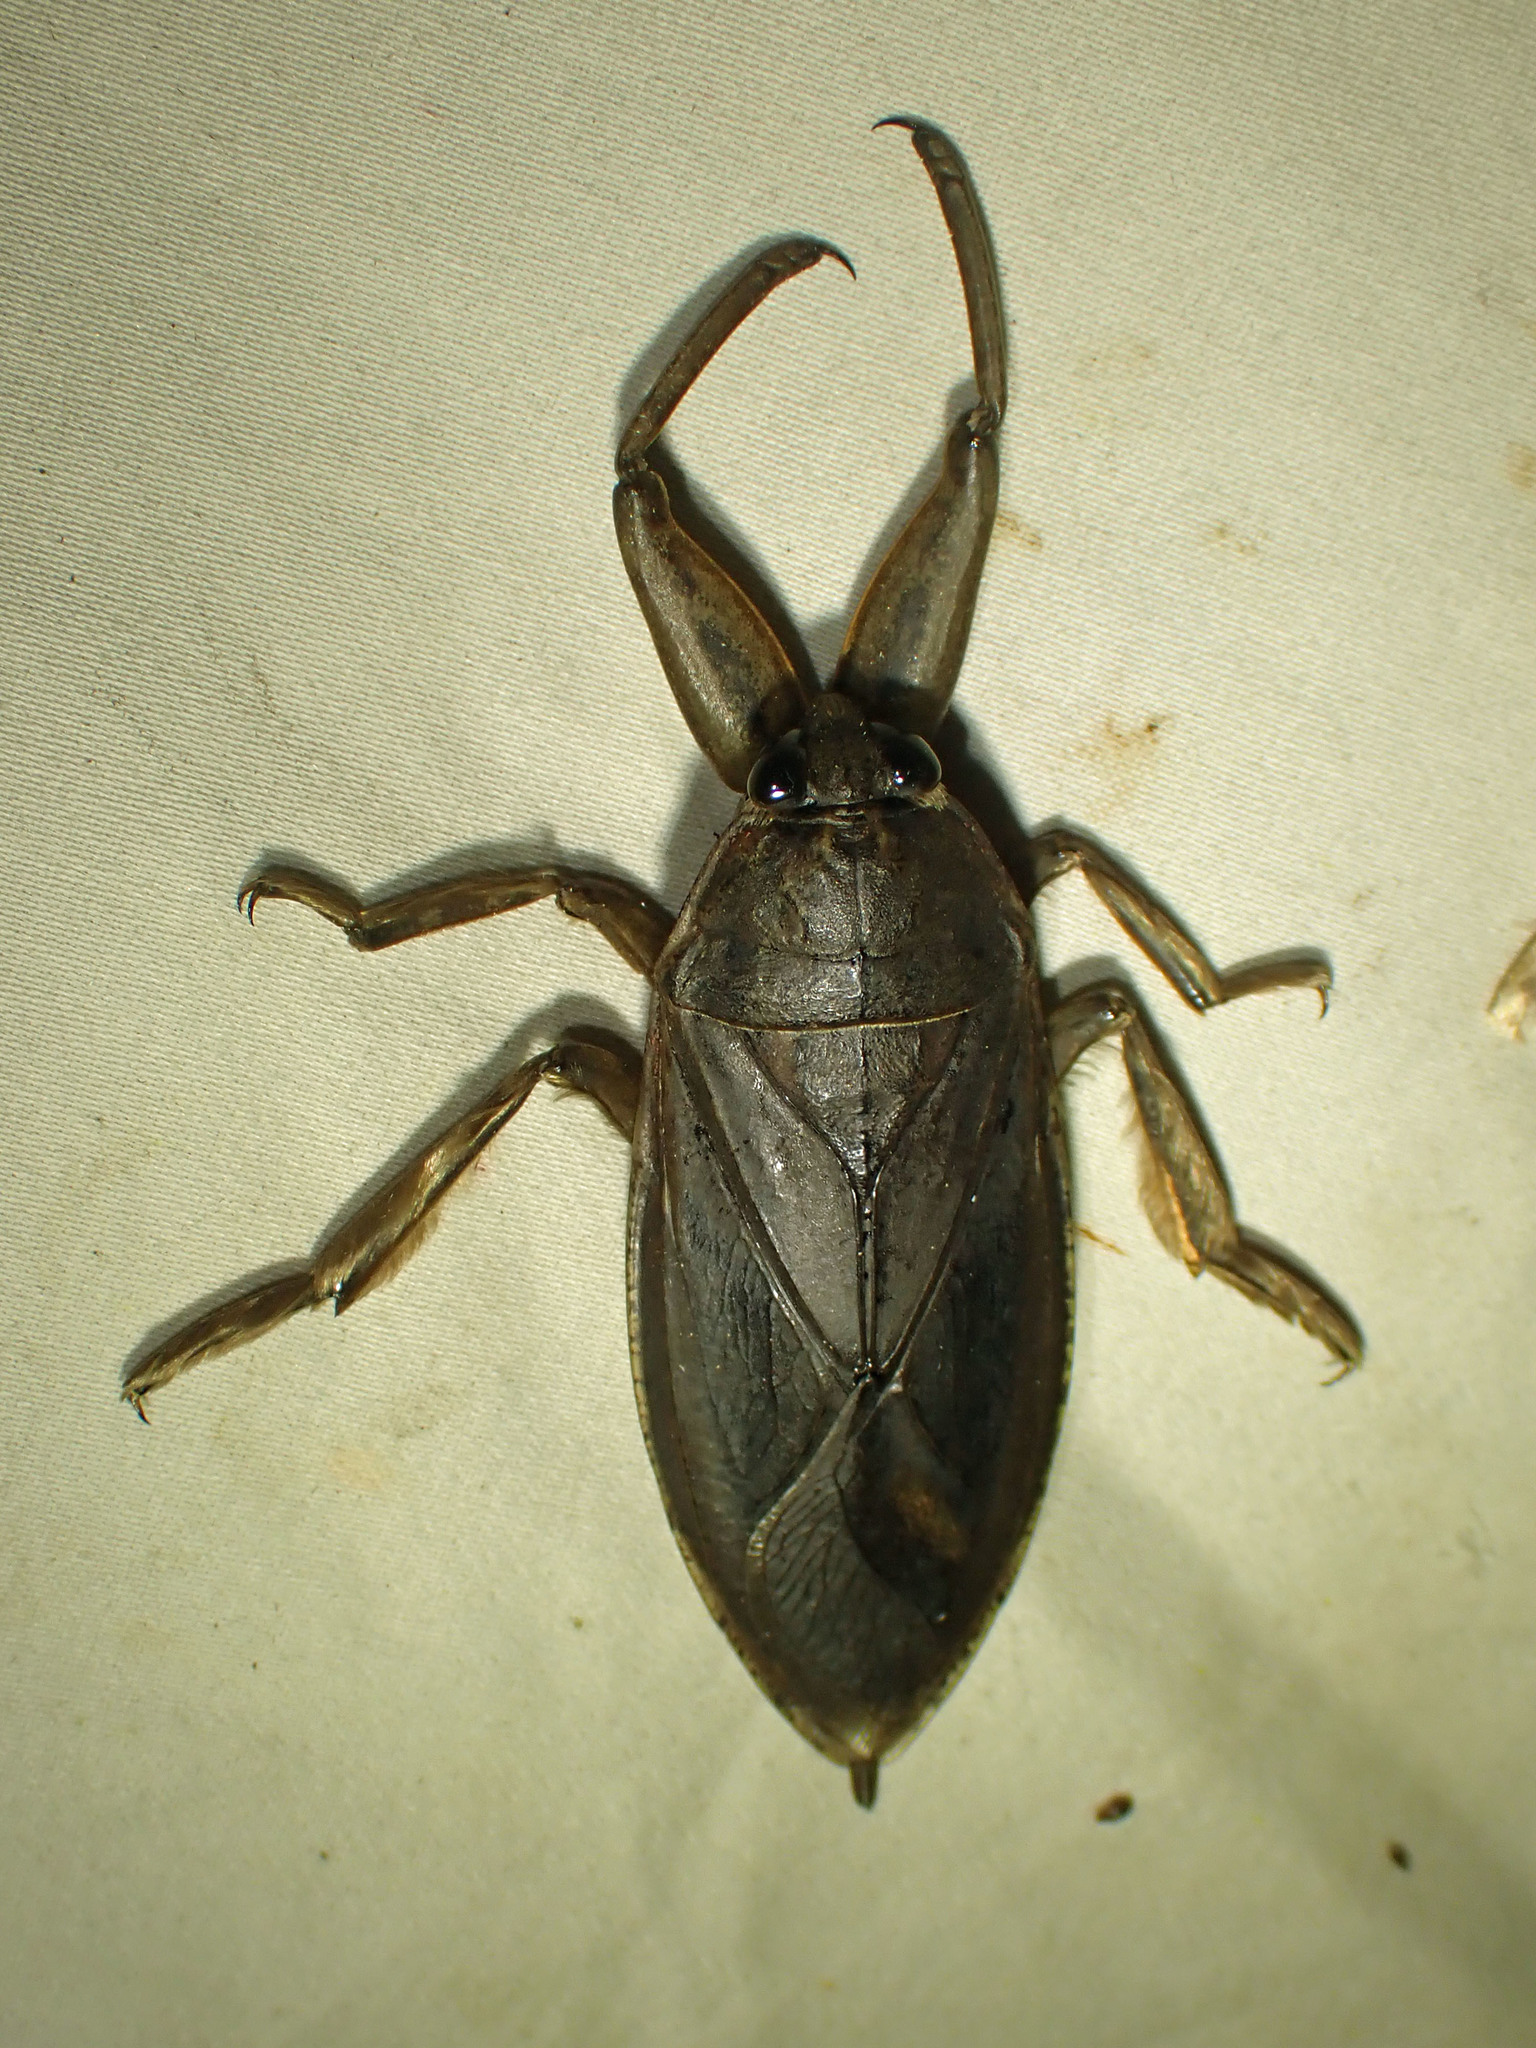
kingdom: Animalia
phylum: Arthropoda
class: Insecta
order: Hemiptera
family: Belostomatidae
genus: Lethocerus
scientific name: Lethocerus americanus
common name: Giant water bug
